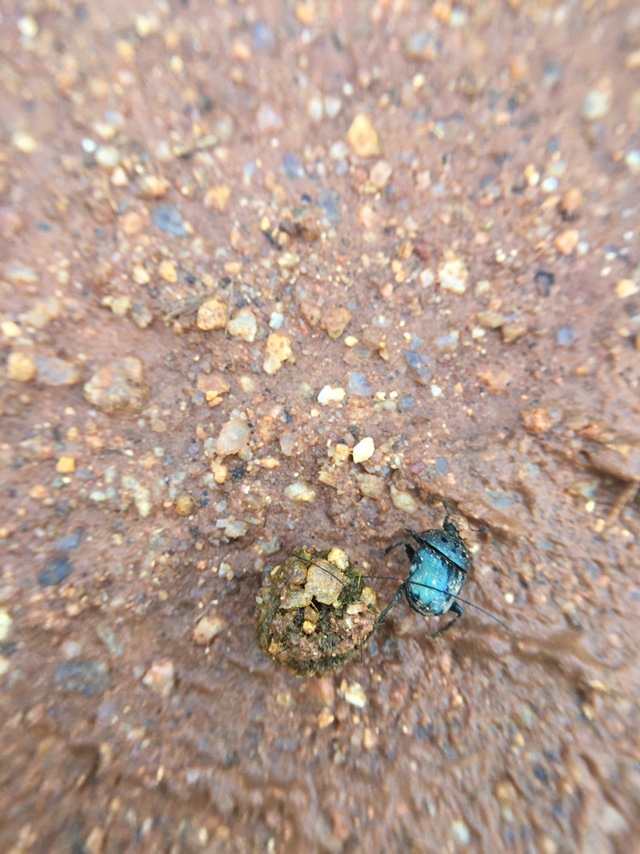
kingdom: Animalia
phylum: Arthropoda
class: Insecta
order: Coleoptera
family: Scarabaeidae
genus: Gymnopleurus
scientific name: Gymnopleurus miliaris
